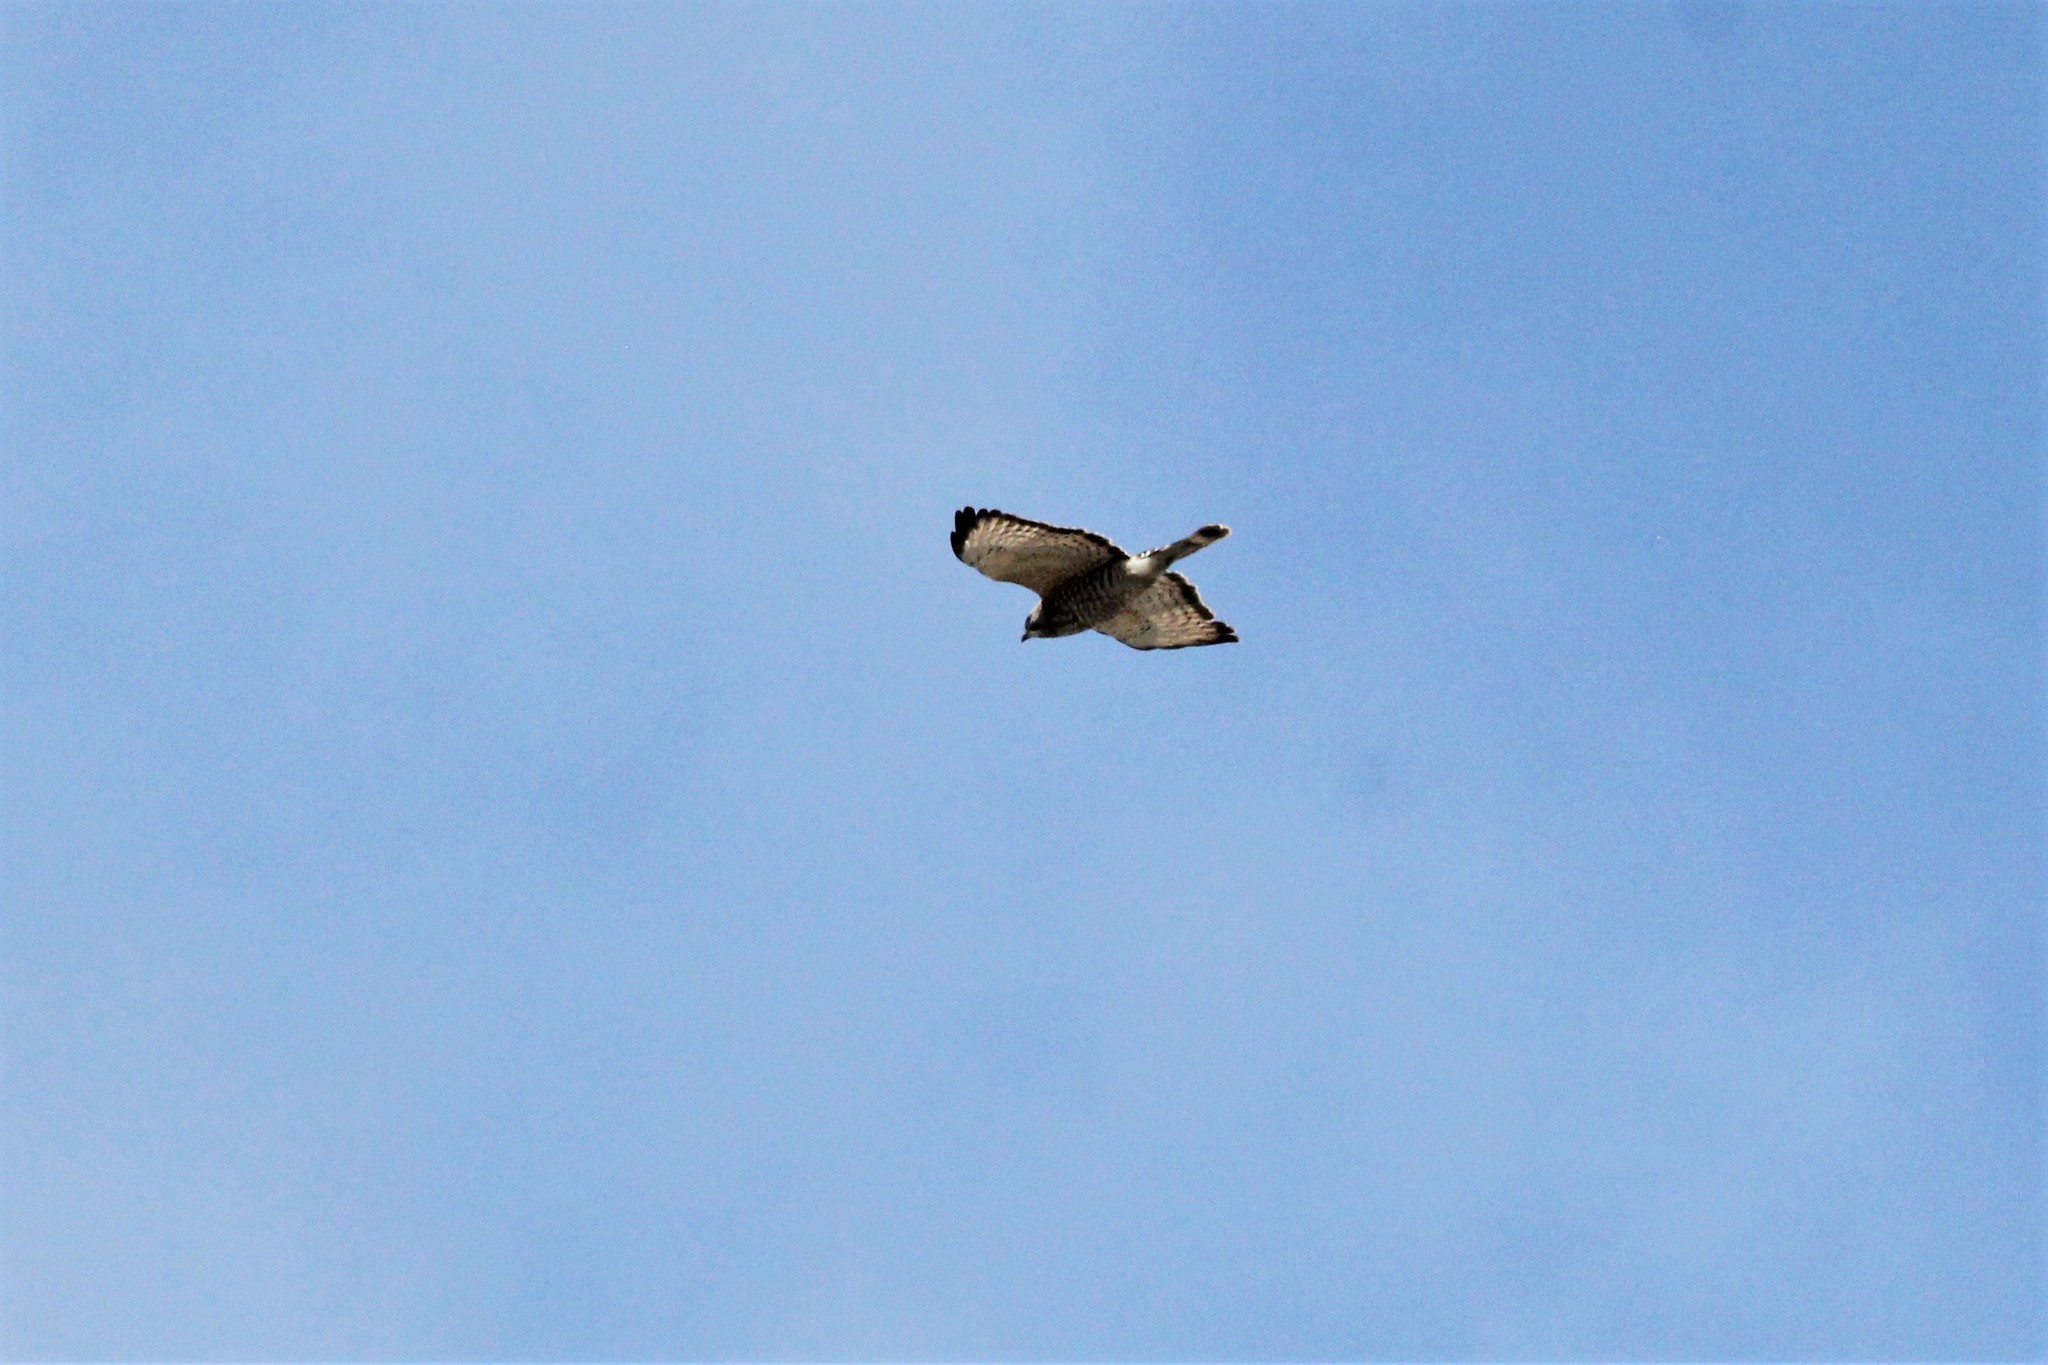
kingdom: Animalia
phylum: Chordata
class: Aves
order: Accipitriformes
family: Accipitridae
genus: Buteo
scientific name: Buteo platypterus
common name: Broad-winged hawk
